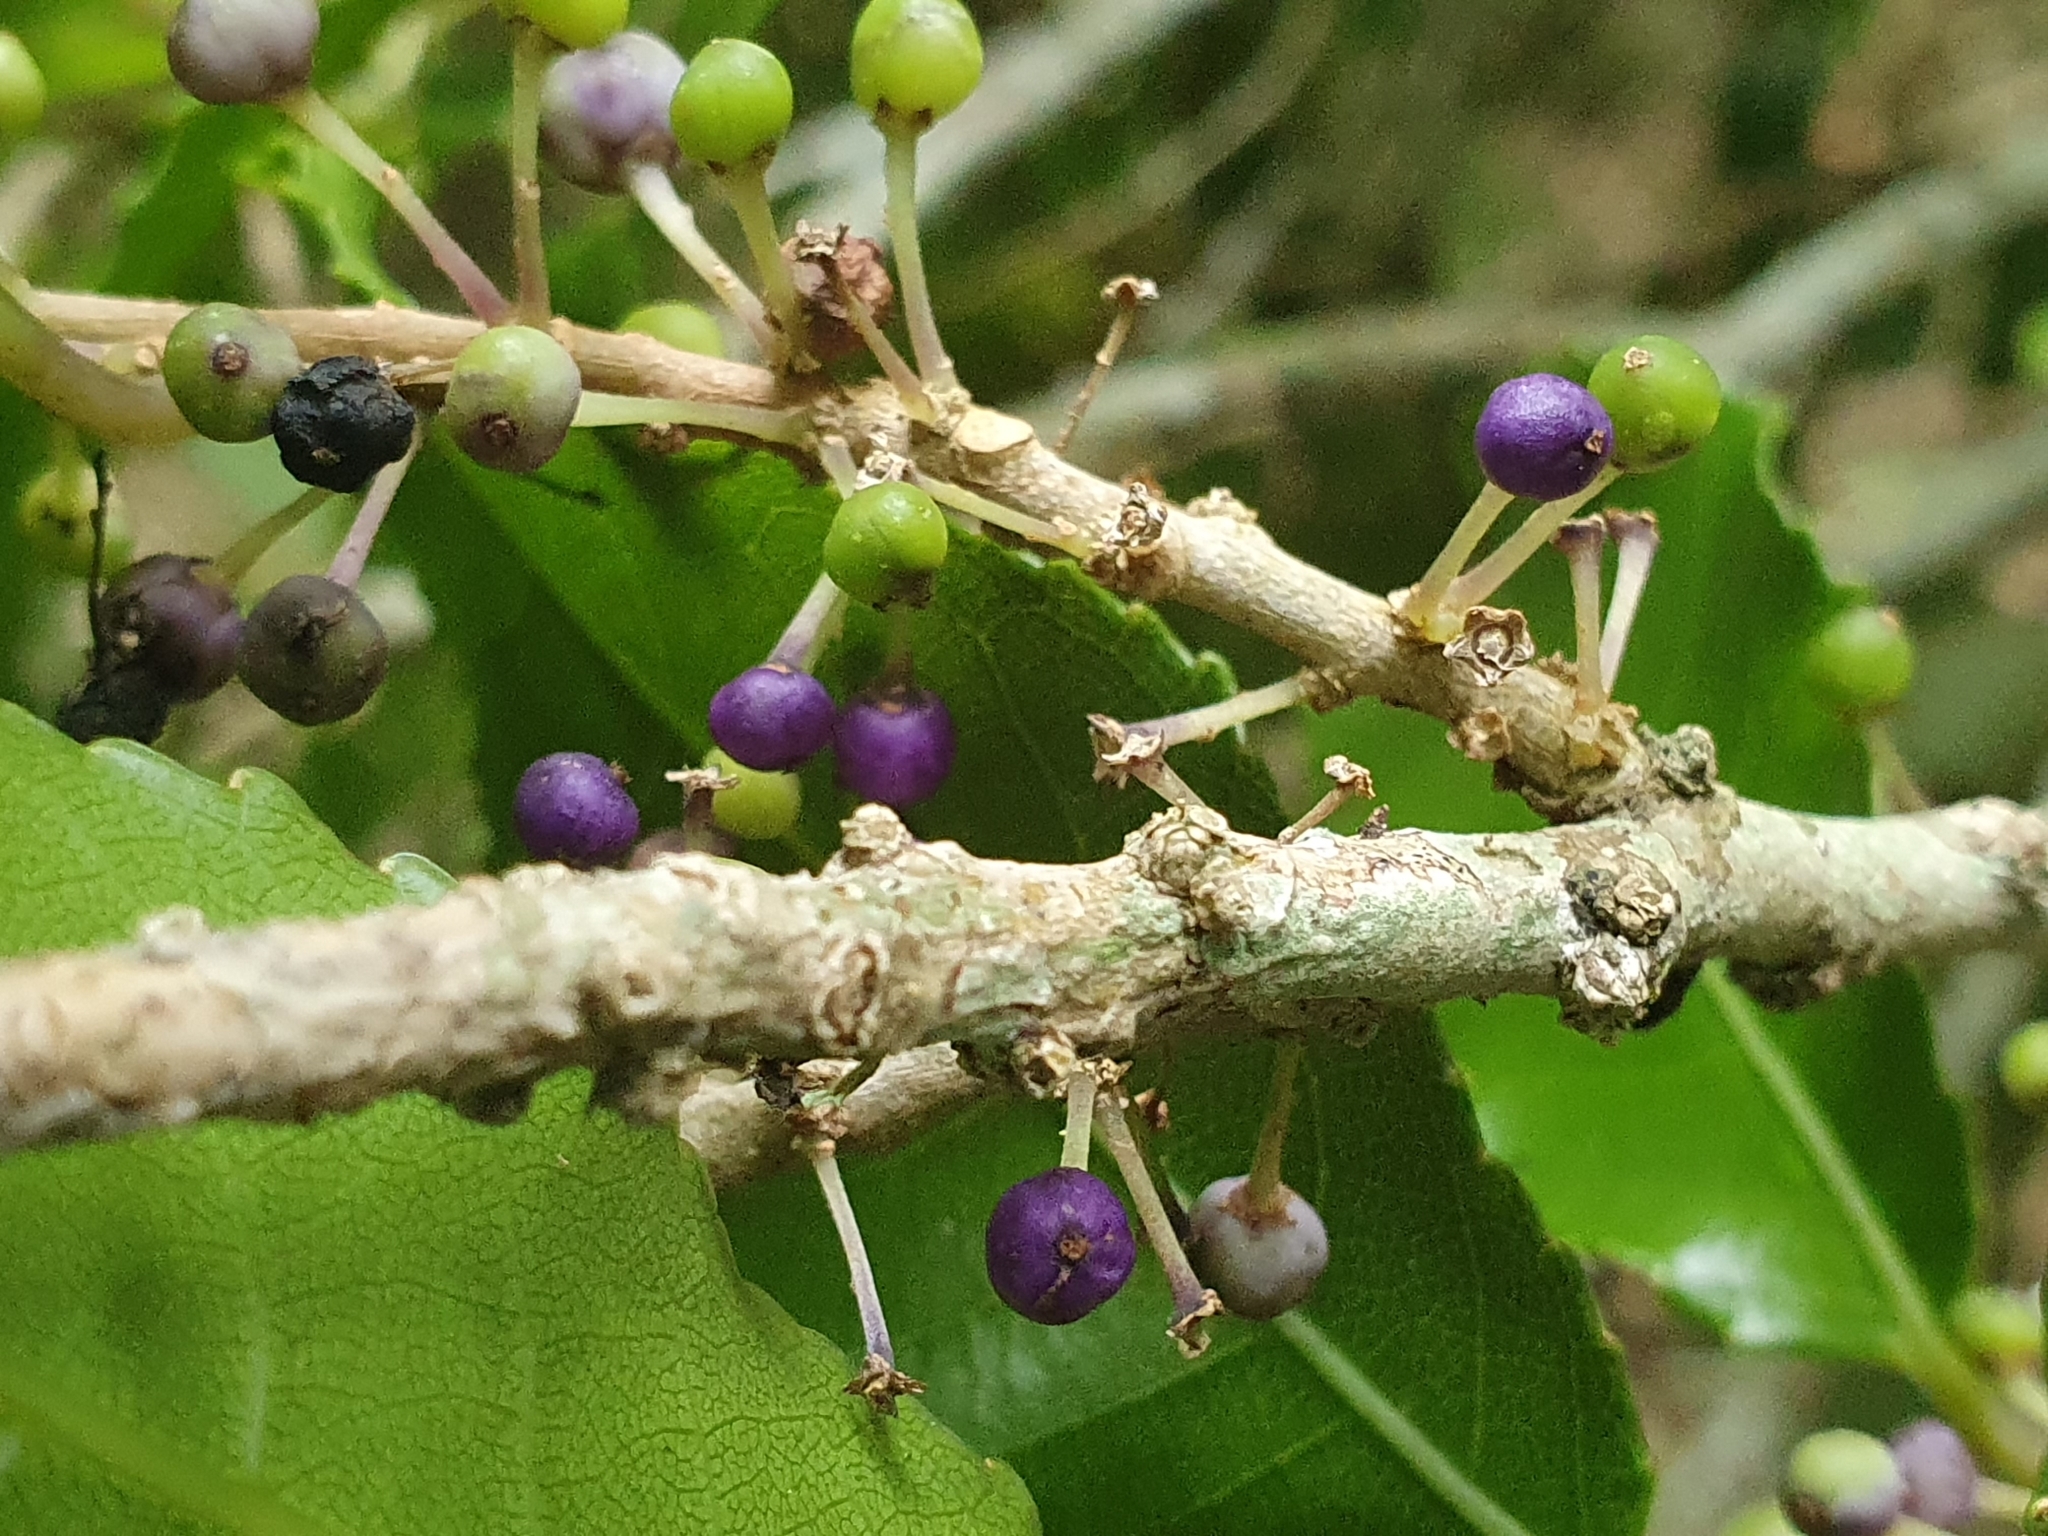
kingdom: Plantae
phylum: Tracheophyta
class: Magnoliopsida
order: Malpighiales
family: Violaceae
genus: Melicytus
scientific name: Melicytus ramiflorus
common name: Mahoe
